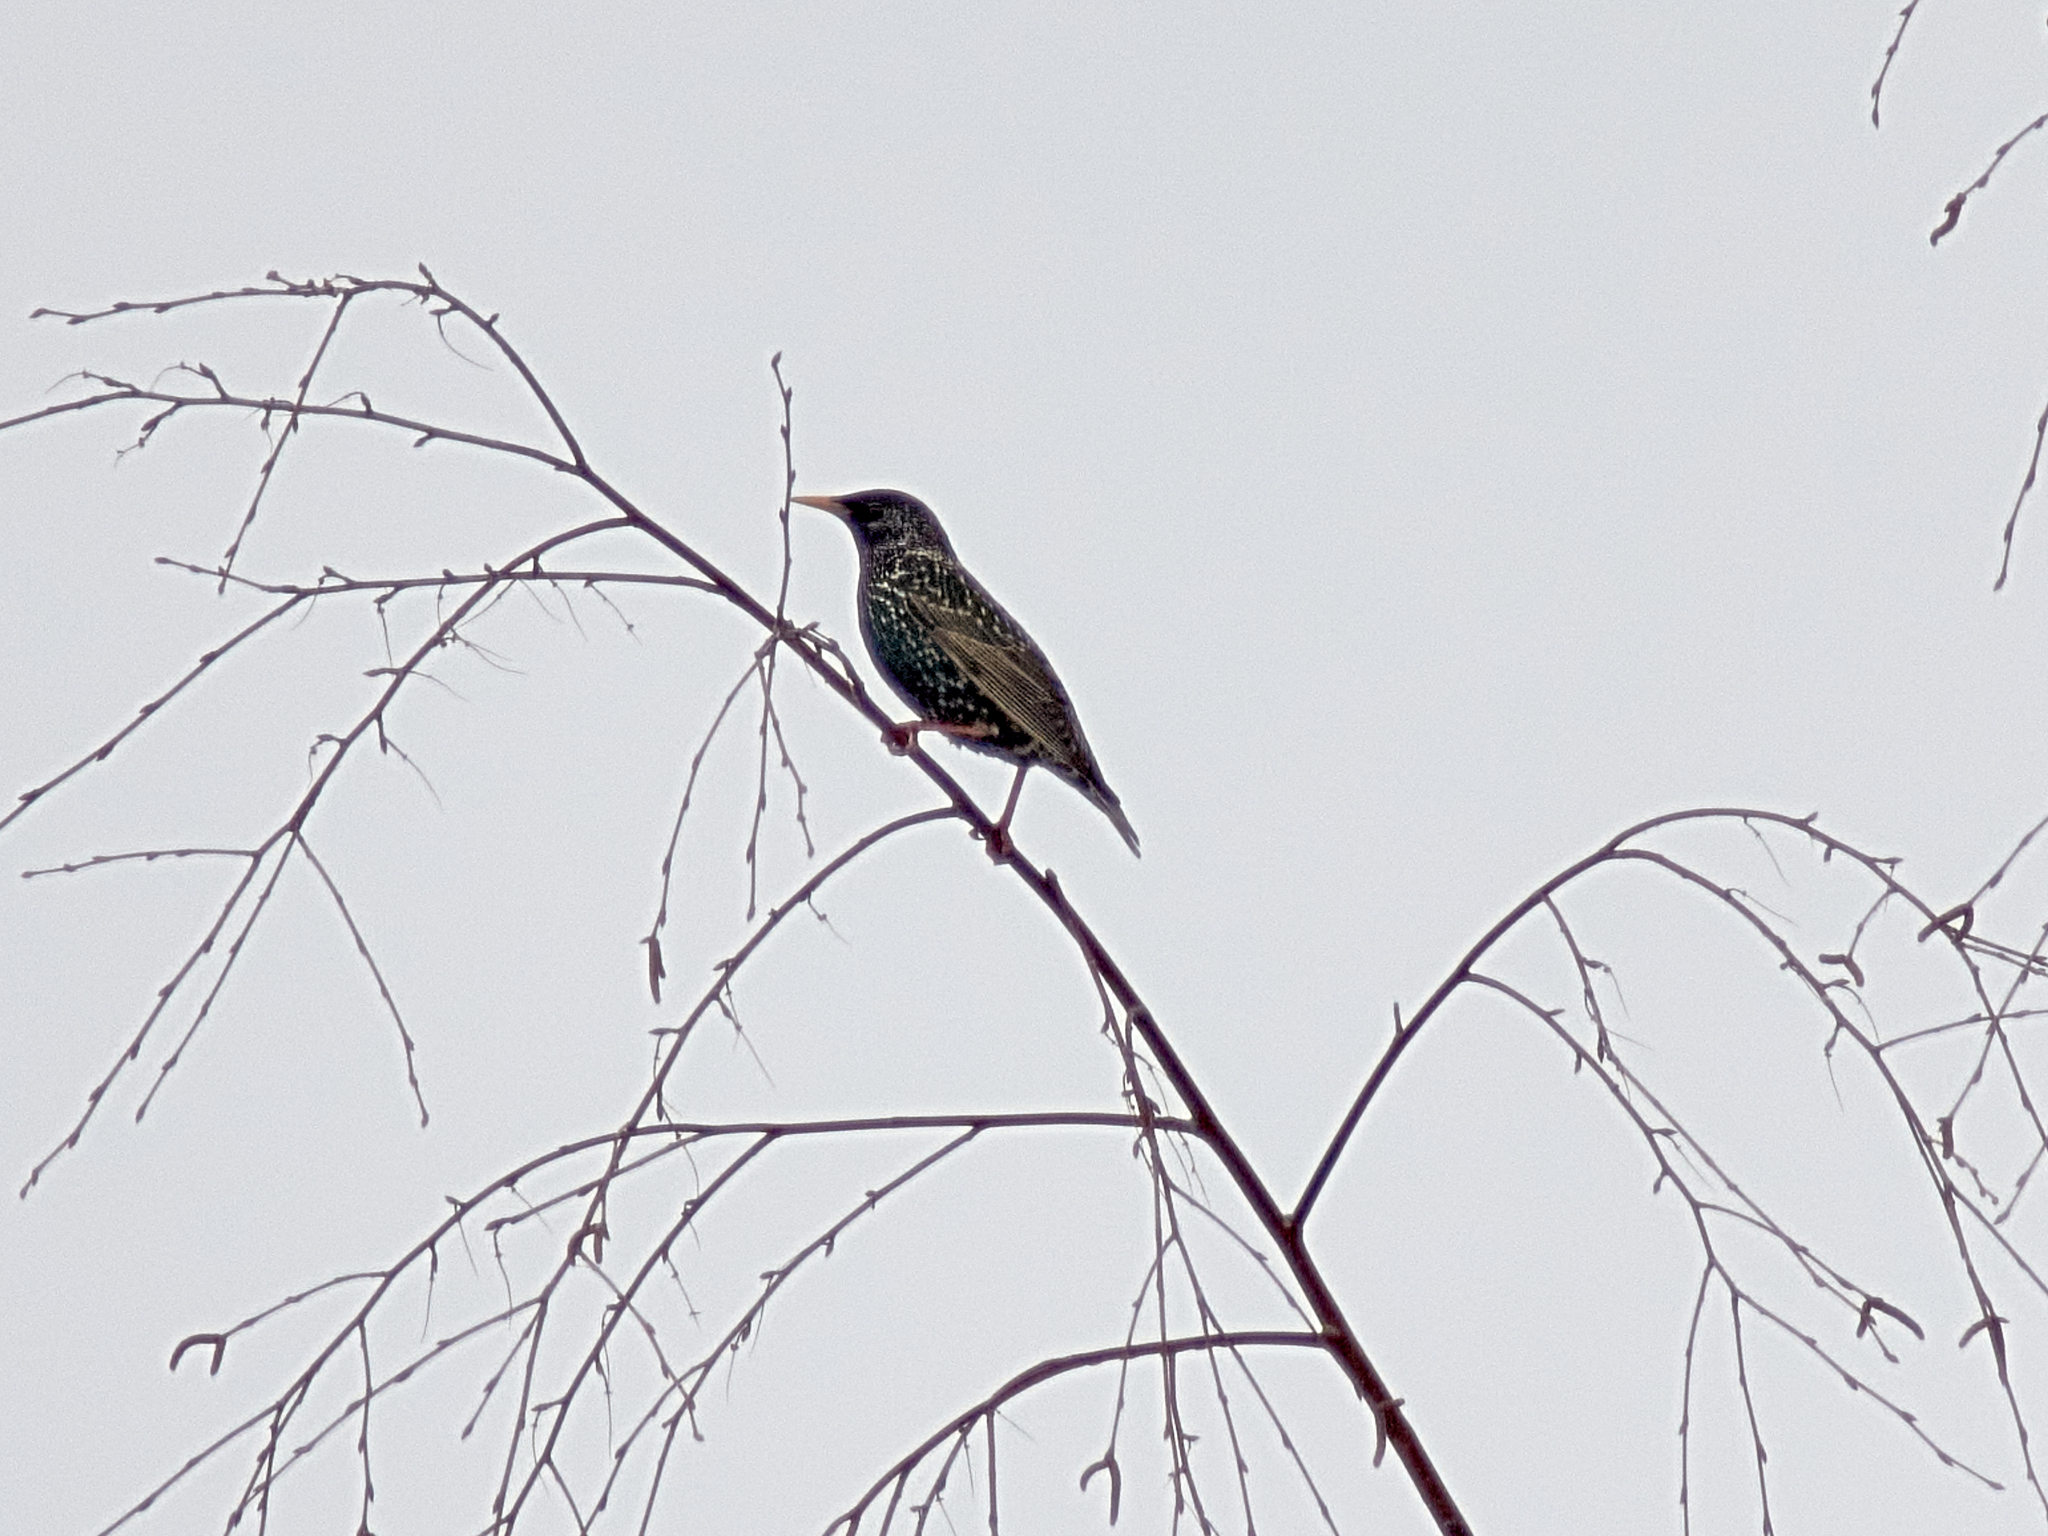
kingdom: Animalia
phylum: Chordata
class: Aves
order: Passeriformes
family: Sturnidae
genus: Sturnus
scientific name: Sturnus vulgaris
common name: Common starling
